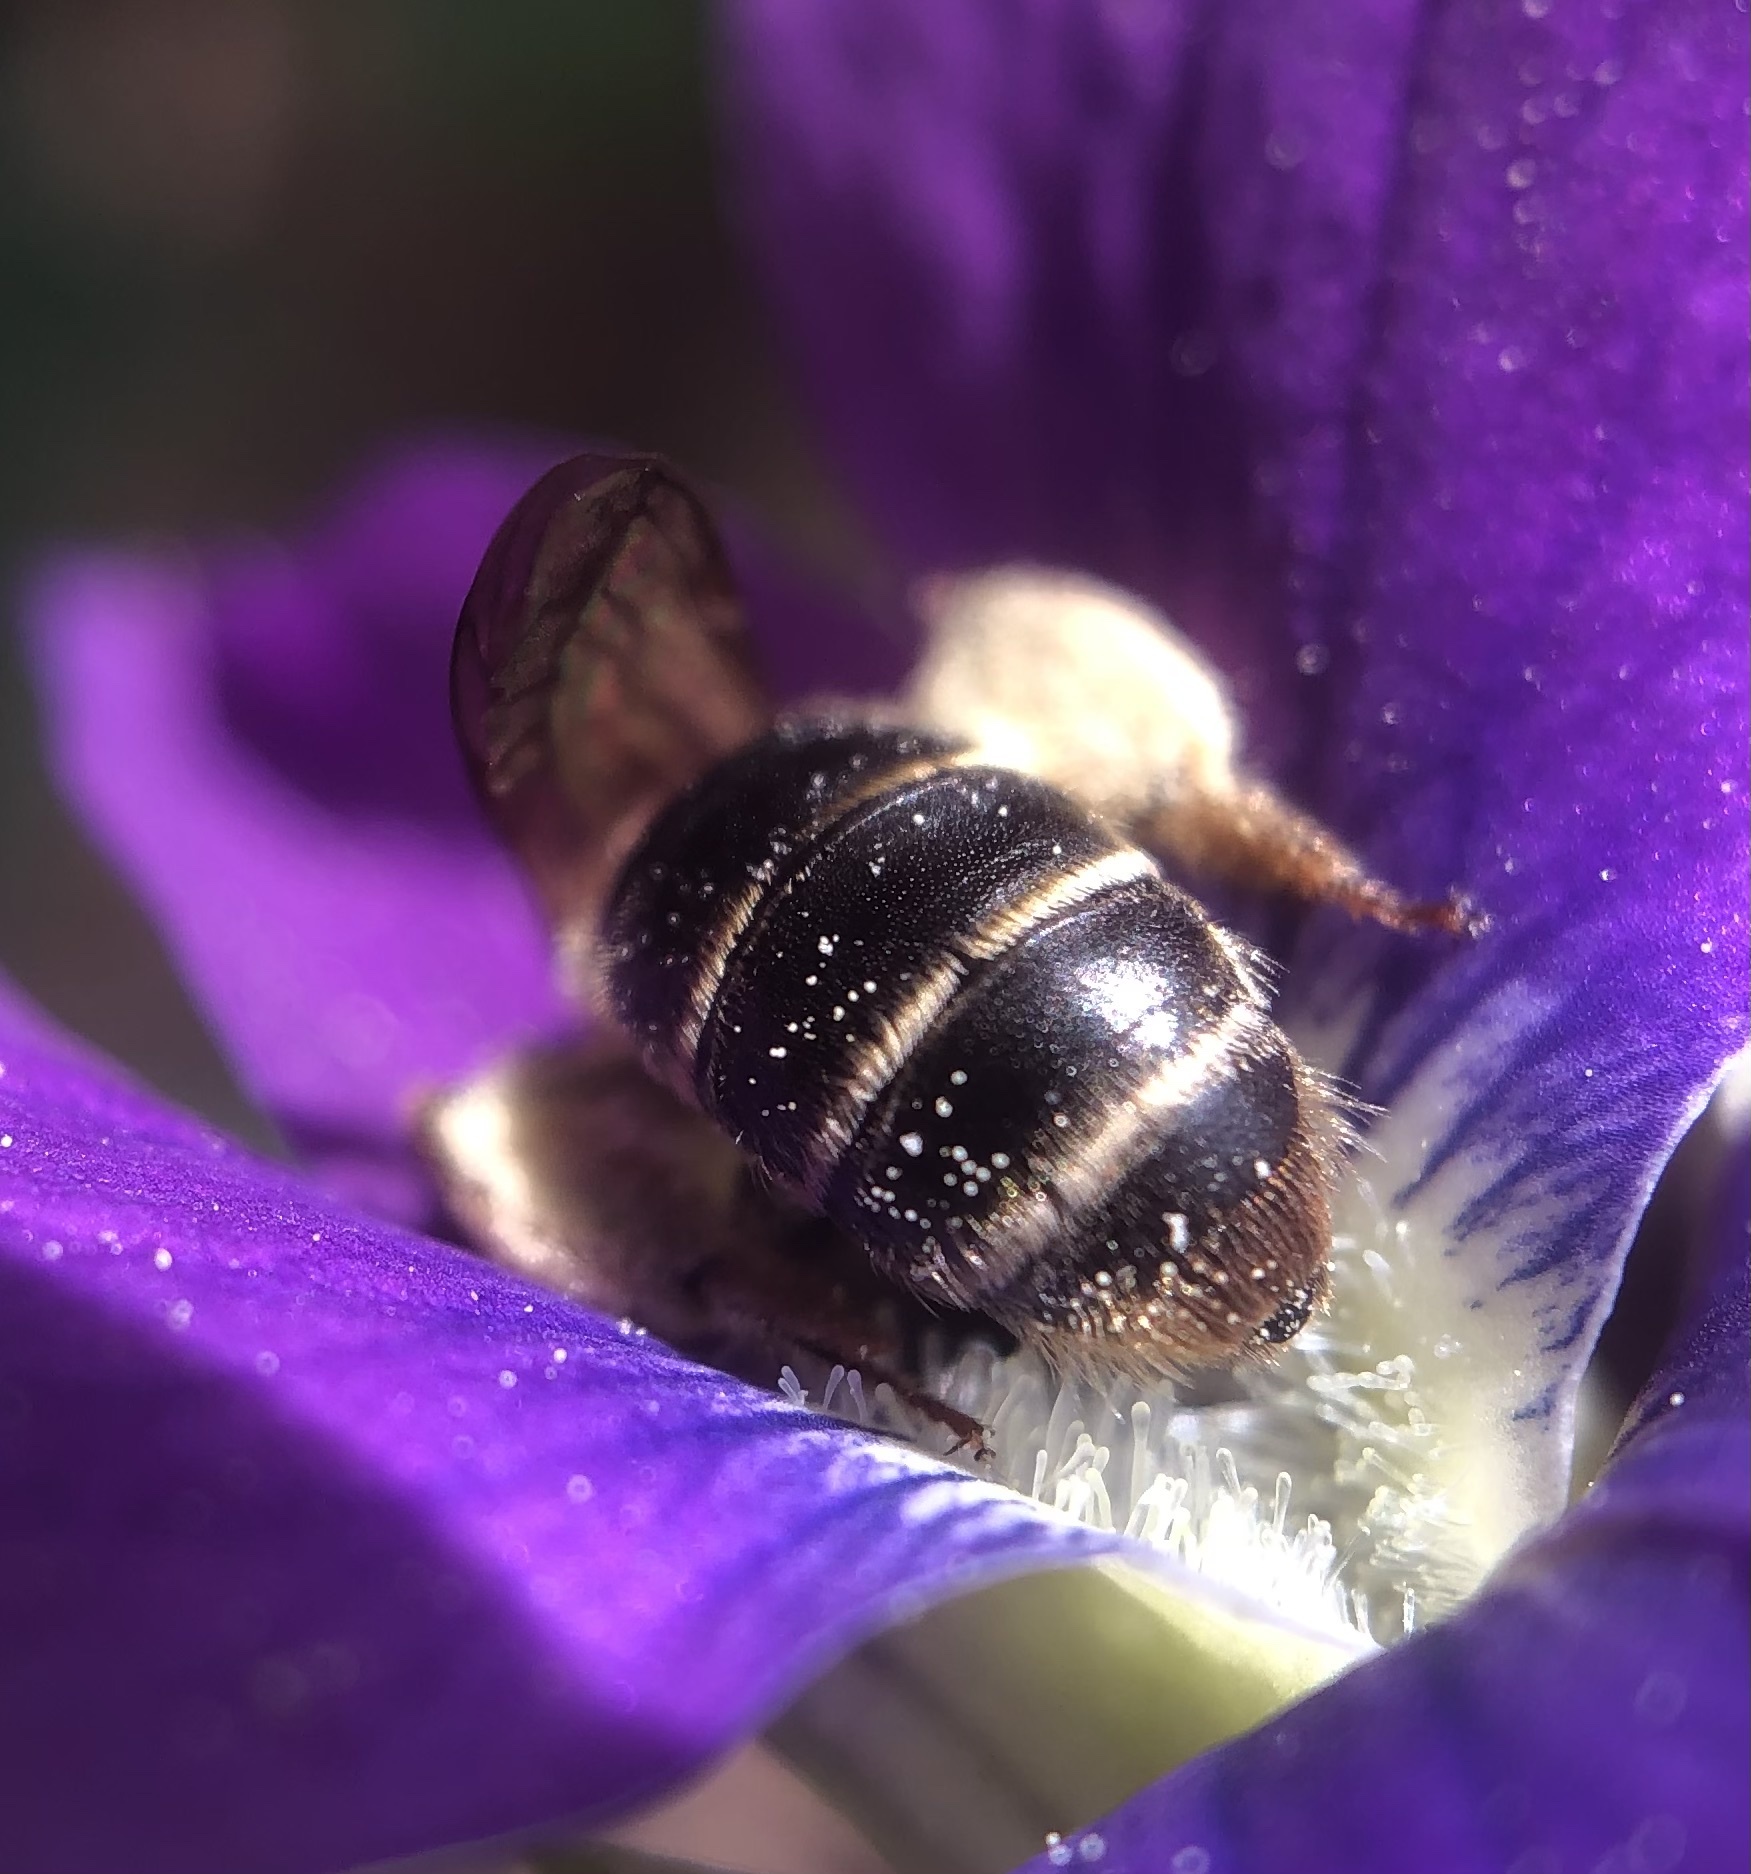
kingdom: Animalia
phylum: Arthropoda
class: Insecta
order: Hymenoptera
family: Andrenidae
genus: Andrena
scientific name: Andrena violae
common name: Violet miner
